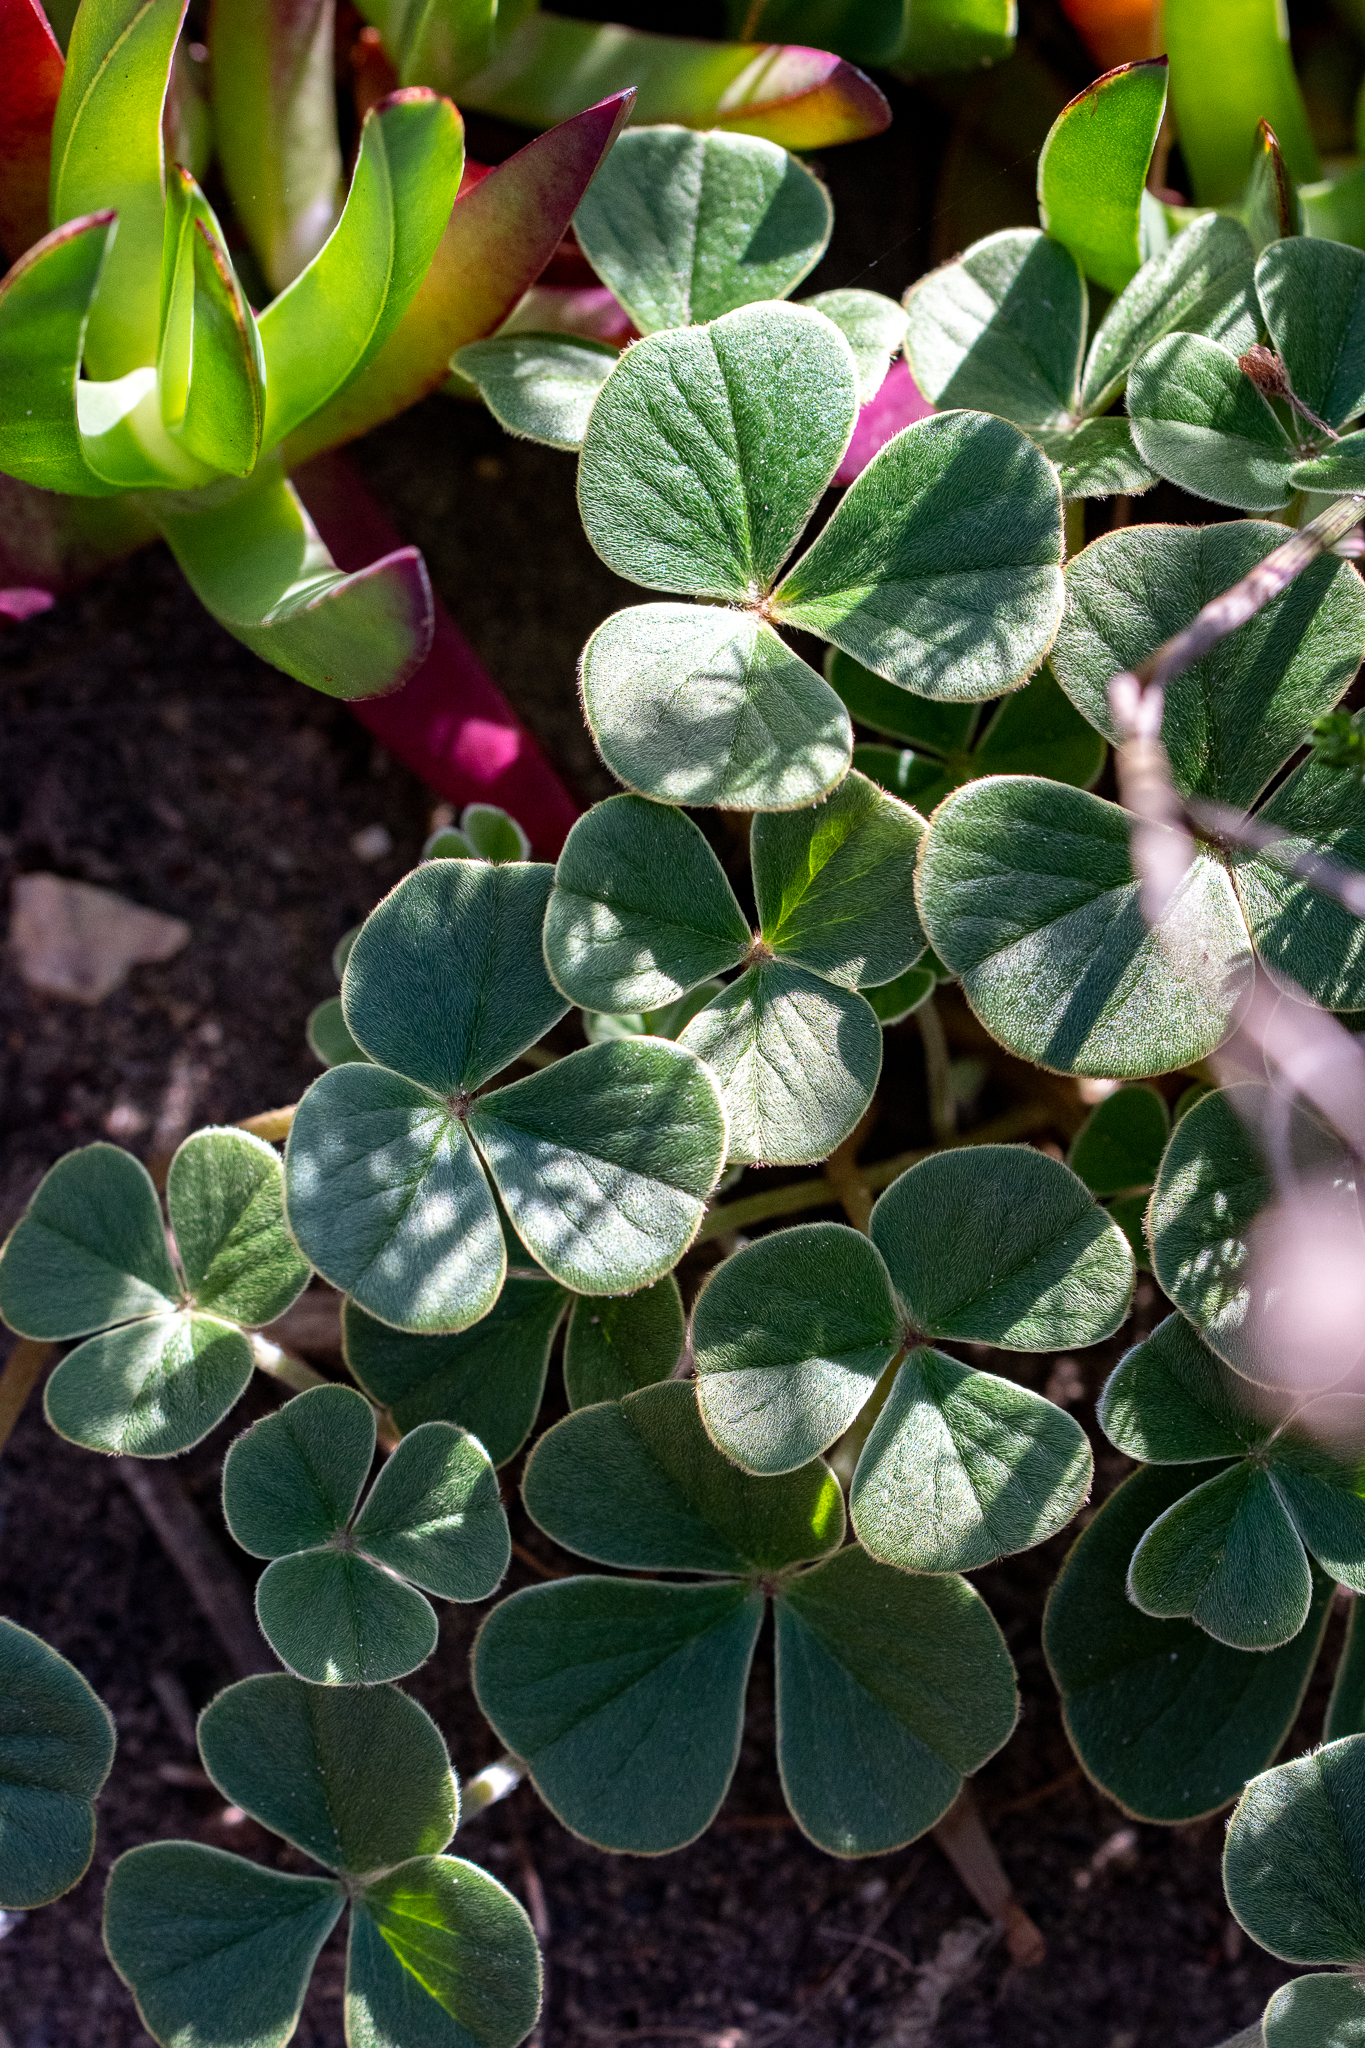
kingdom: Plantae
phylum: Tracheophyta
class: Magnoliopsida
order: Oxalidales
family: Oxalidaceae
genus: Oxalis
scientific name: Oxalis truncatula
